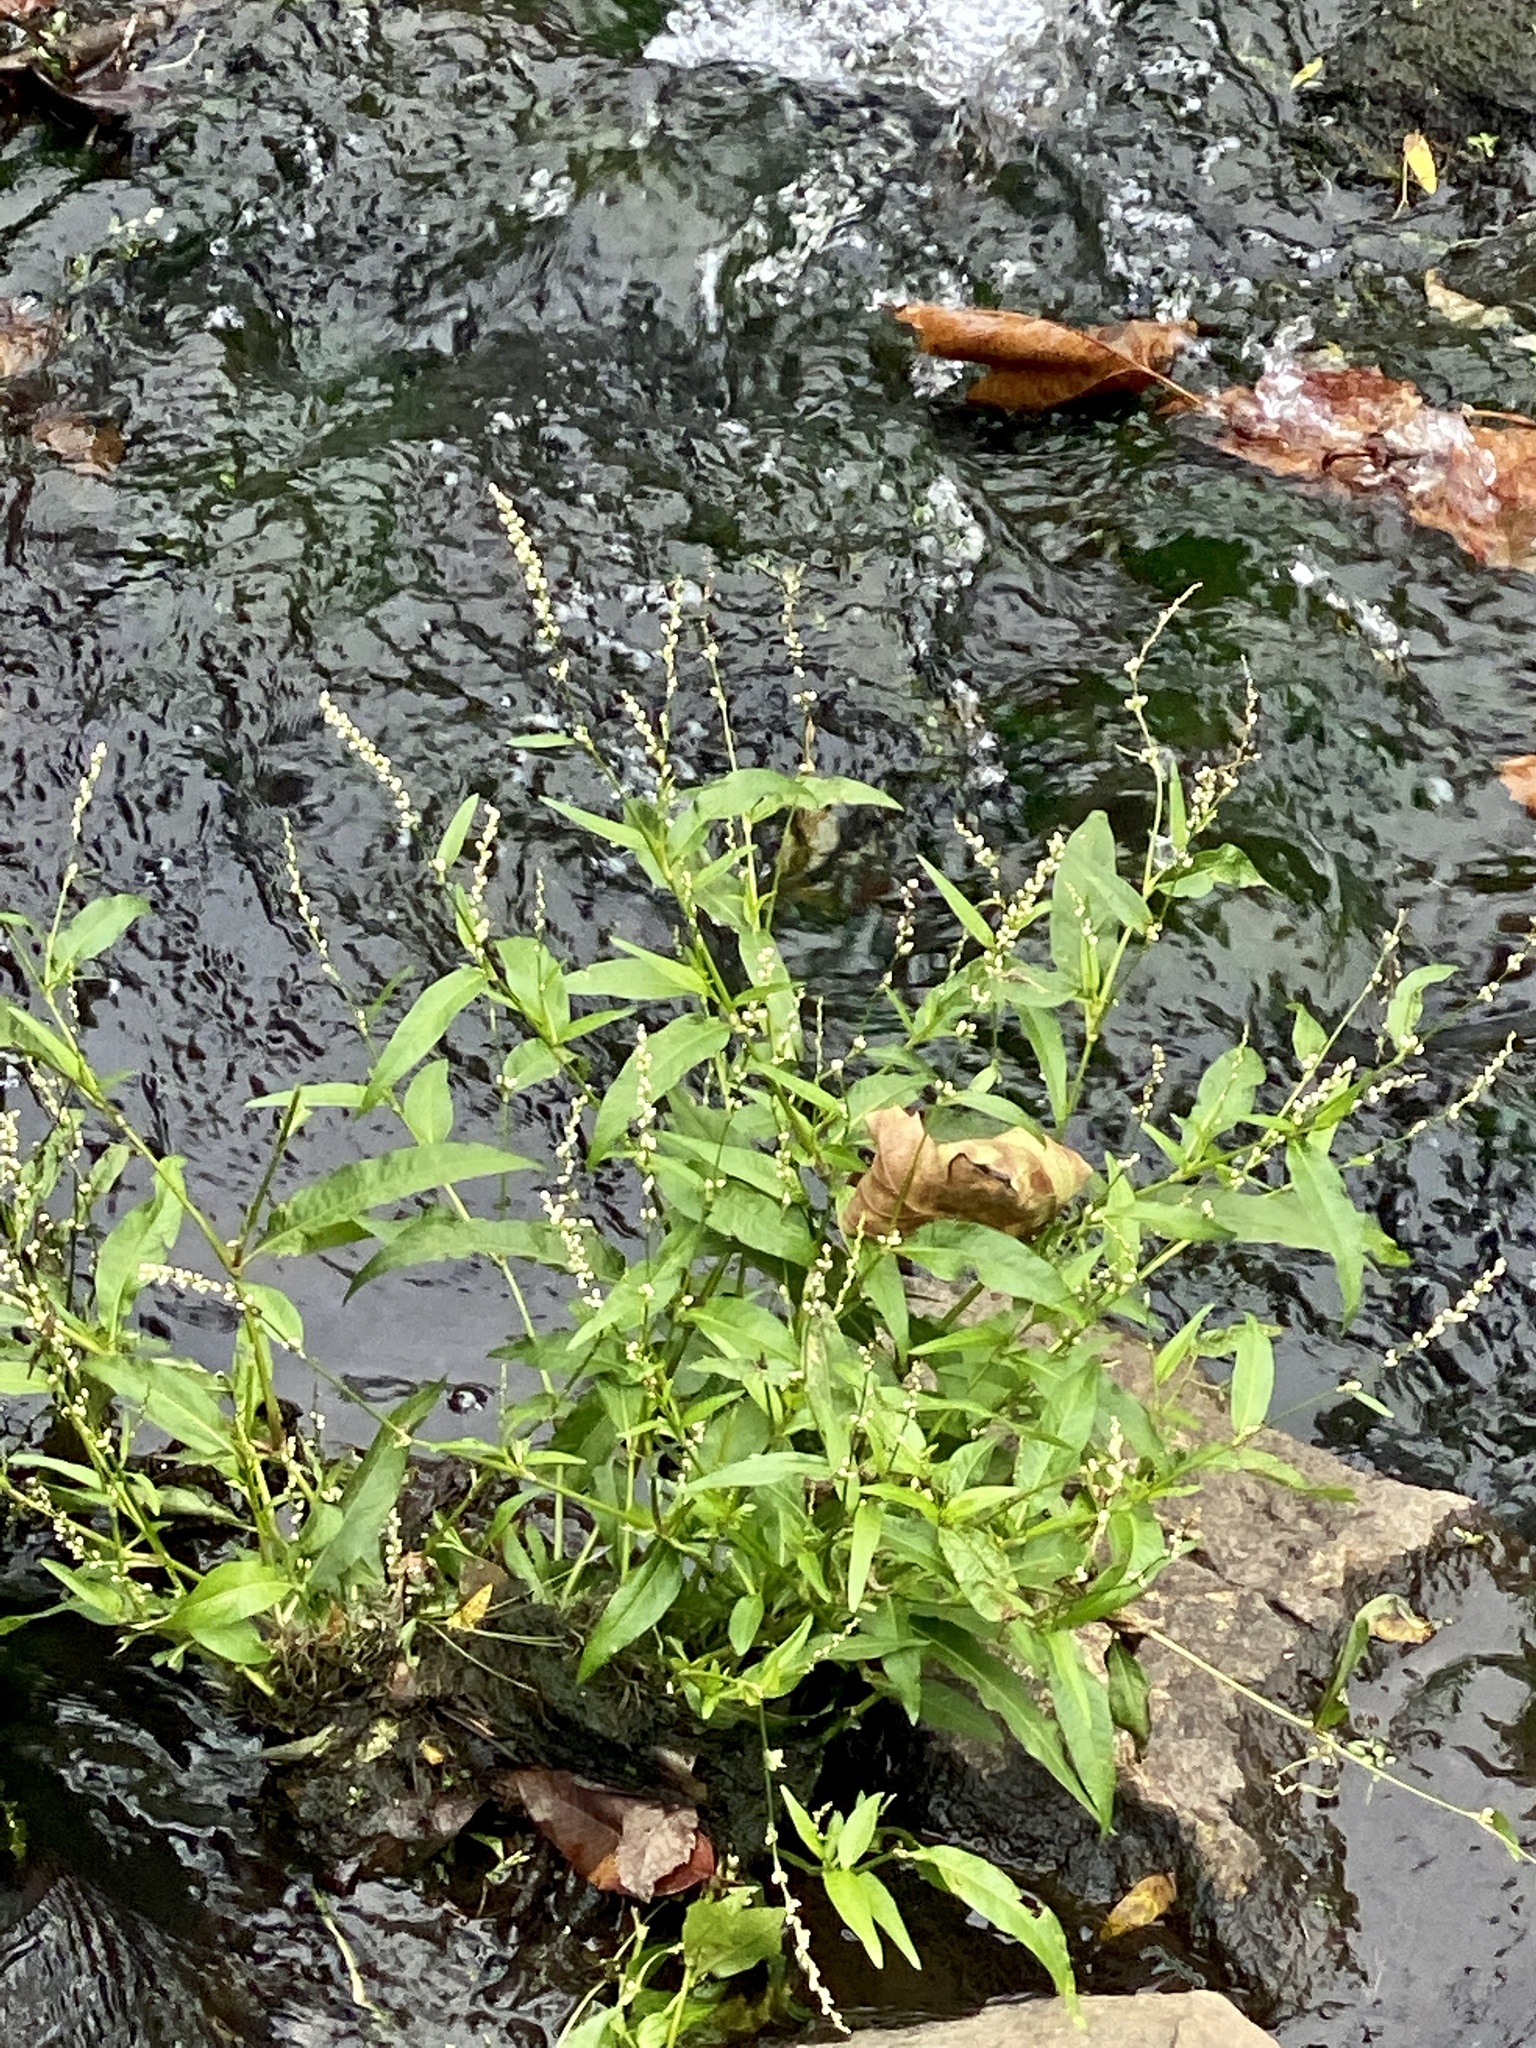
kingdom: Plantae
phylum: Tracheophyta
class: Magnoliopsida
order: Caryophyllales
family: Polygonaceae
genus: Persicaria
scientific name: Persicaria punctata
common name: Dotted smartweed
